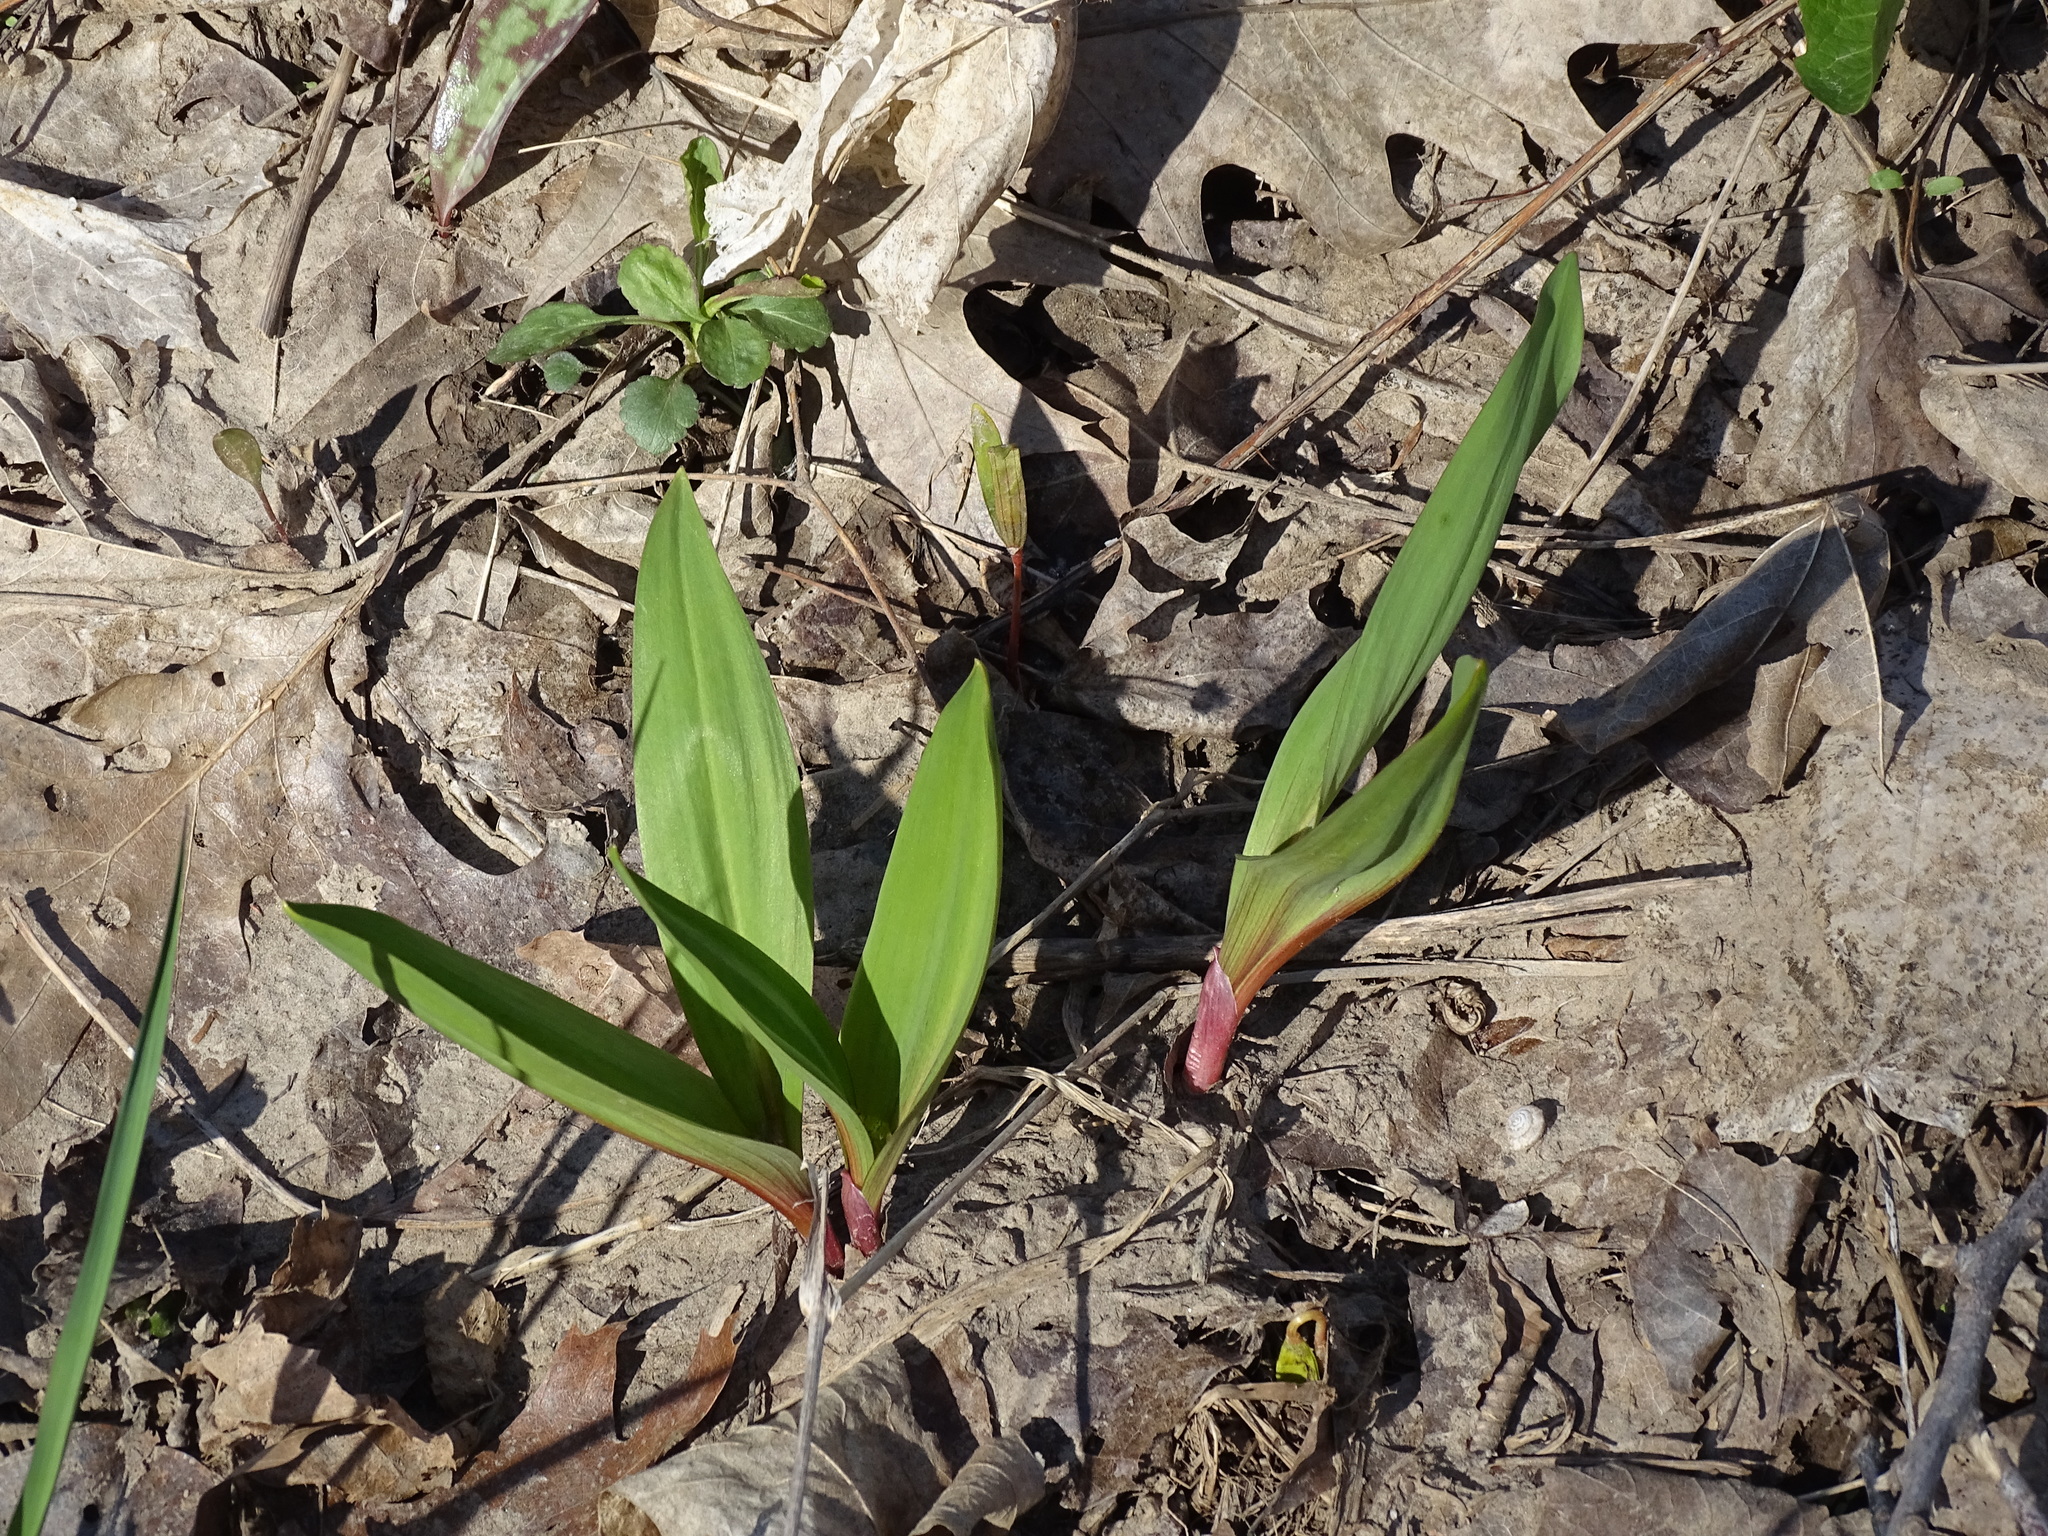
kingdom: Plantae
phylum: Tracheophyta
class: Liliopsida
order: Asparagales
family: Amaryllidaceae
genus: Allium
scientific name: Allium tricoccum
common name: Ramp
